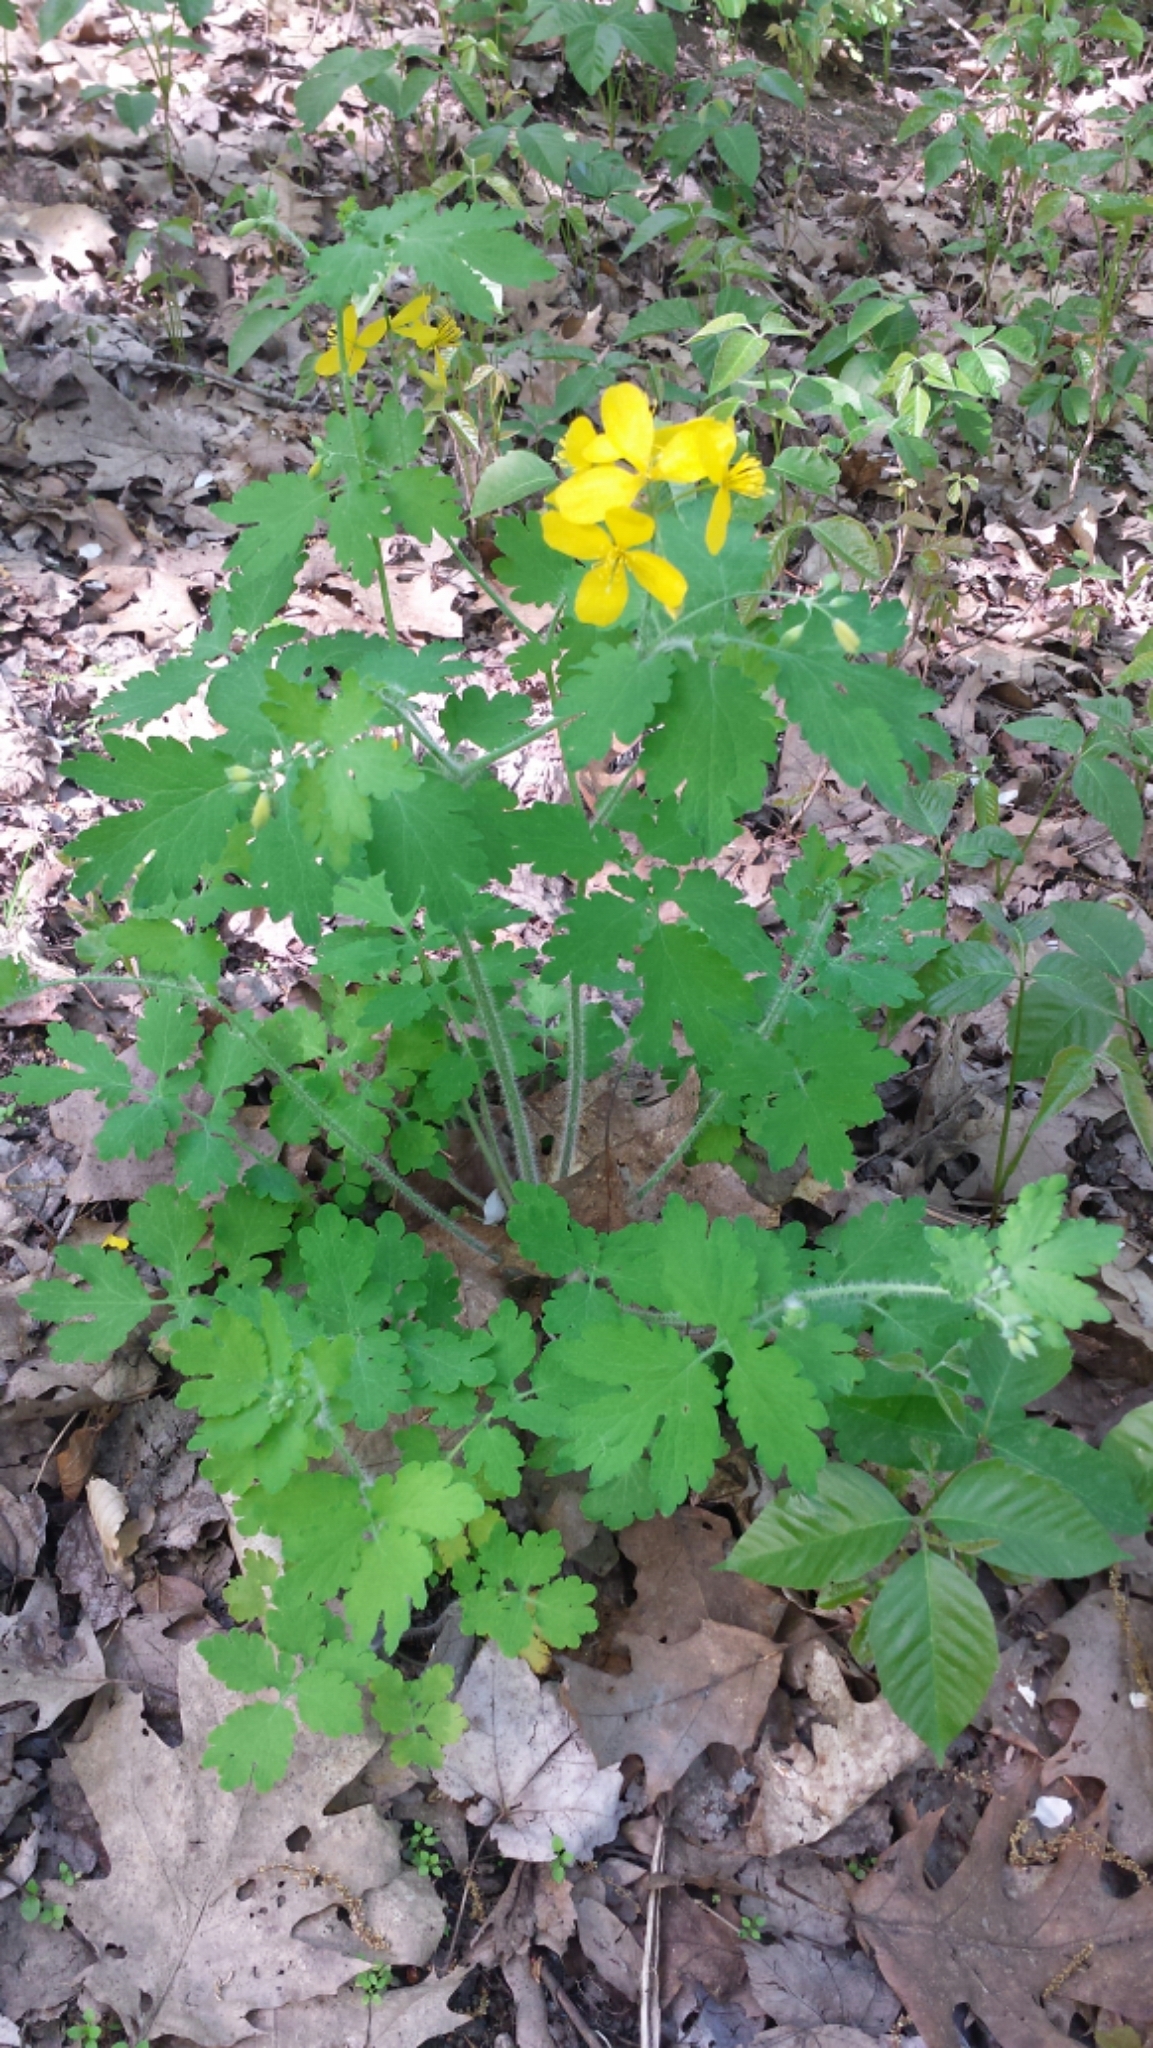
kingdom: Plantae
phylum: Tracheophyta
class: Magnoliopsida
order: Ranunculales
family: Papaveraceae
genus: Chelidonium
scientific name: Chelidonium majus
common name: Greater celandine
